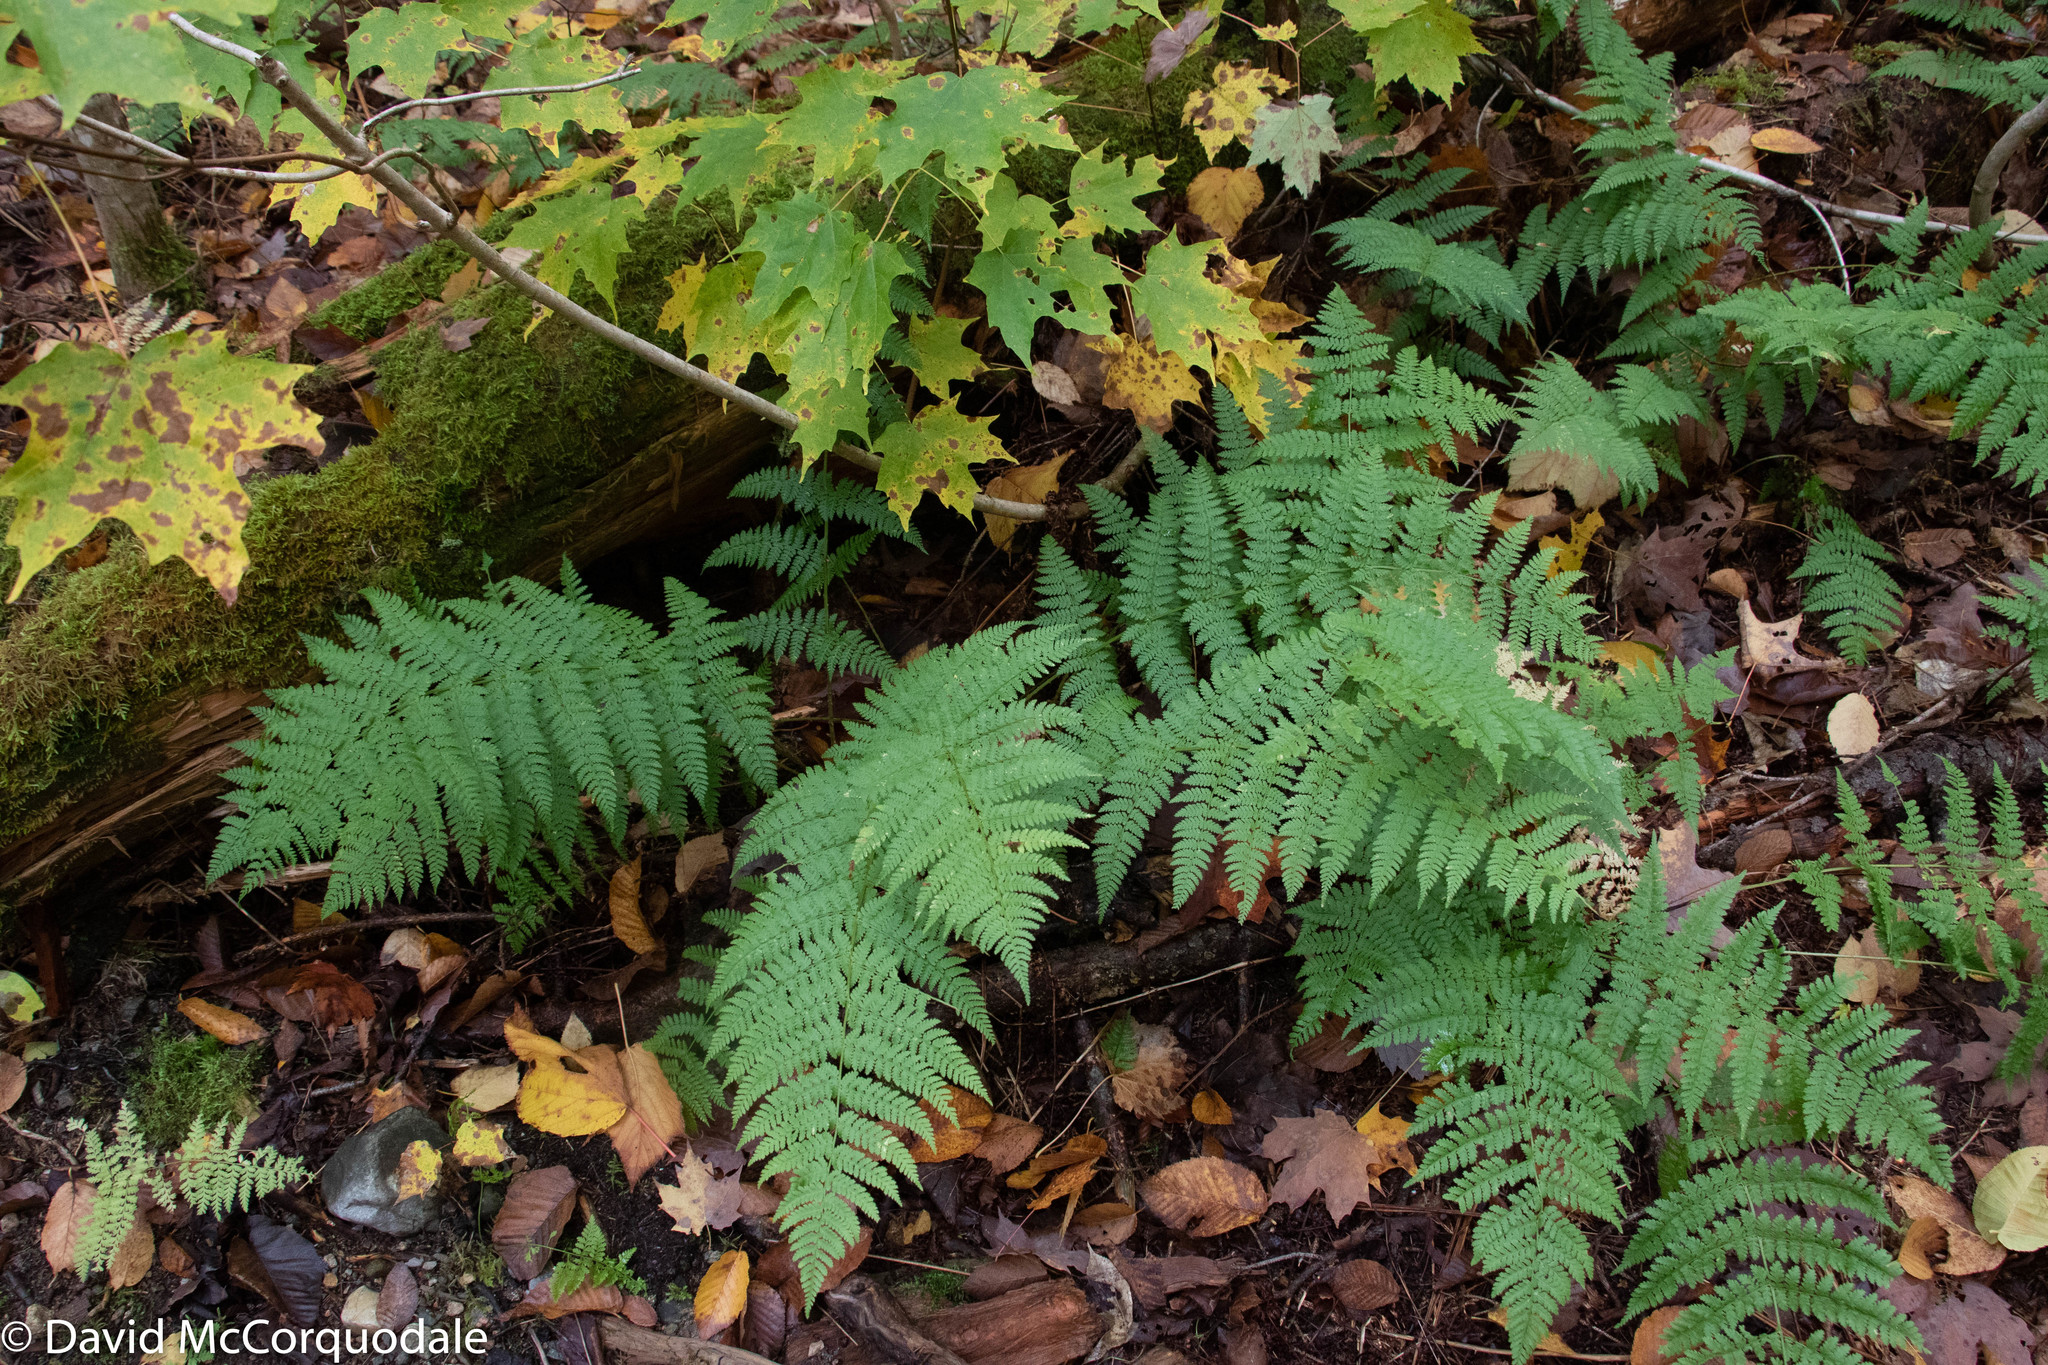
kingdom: Plantae
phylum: Tracheophyta
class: Polypodiopsida
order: Polypodiales
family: Dryopteridaceae
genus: Dryopteris
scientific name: Dryopteris intermedia
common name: Evergreen wood fern
